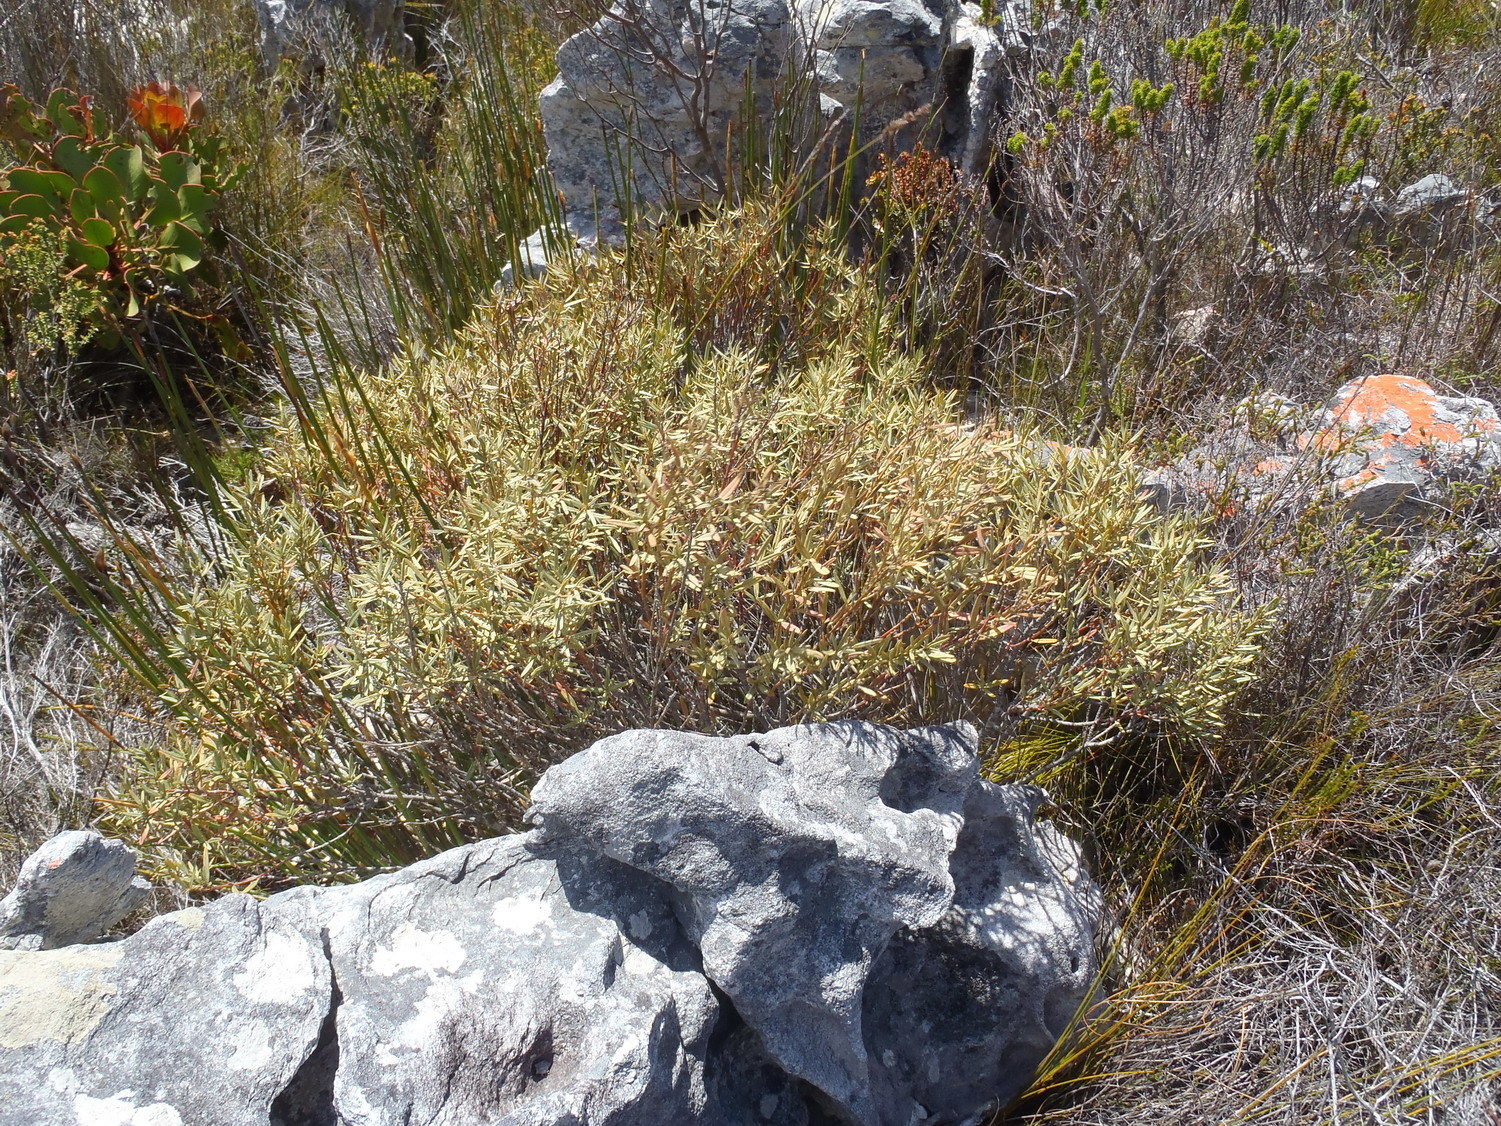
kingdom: Plantae
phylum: Tracheophyta
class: Magnoliopsida
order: Cornales
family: Grubbiaceae
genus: Grubbia
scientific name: Grubbia tomentosa
